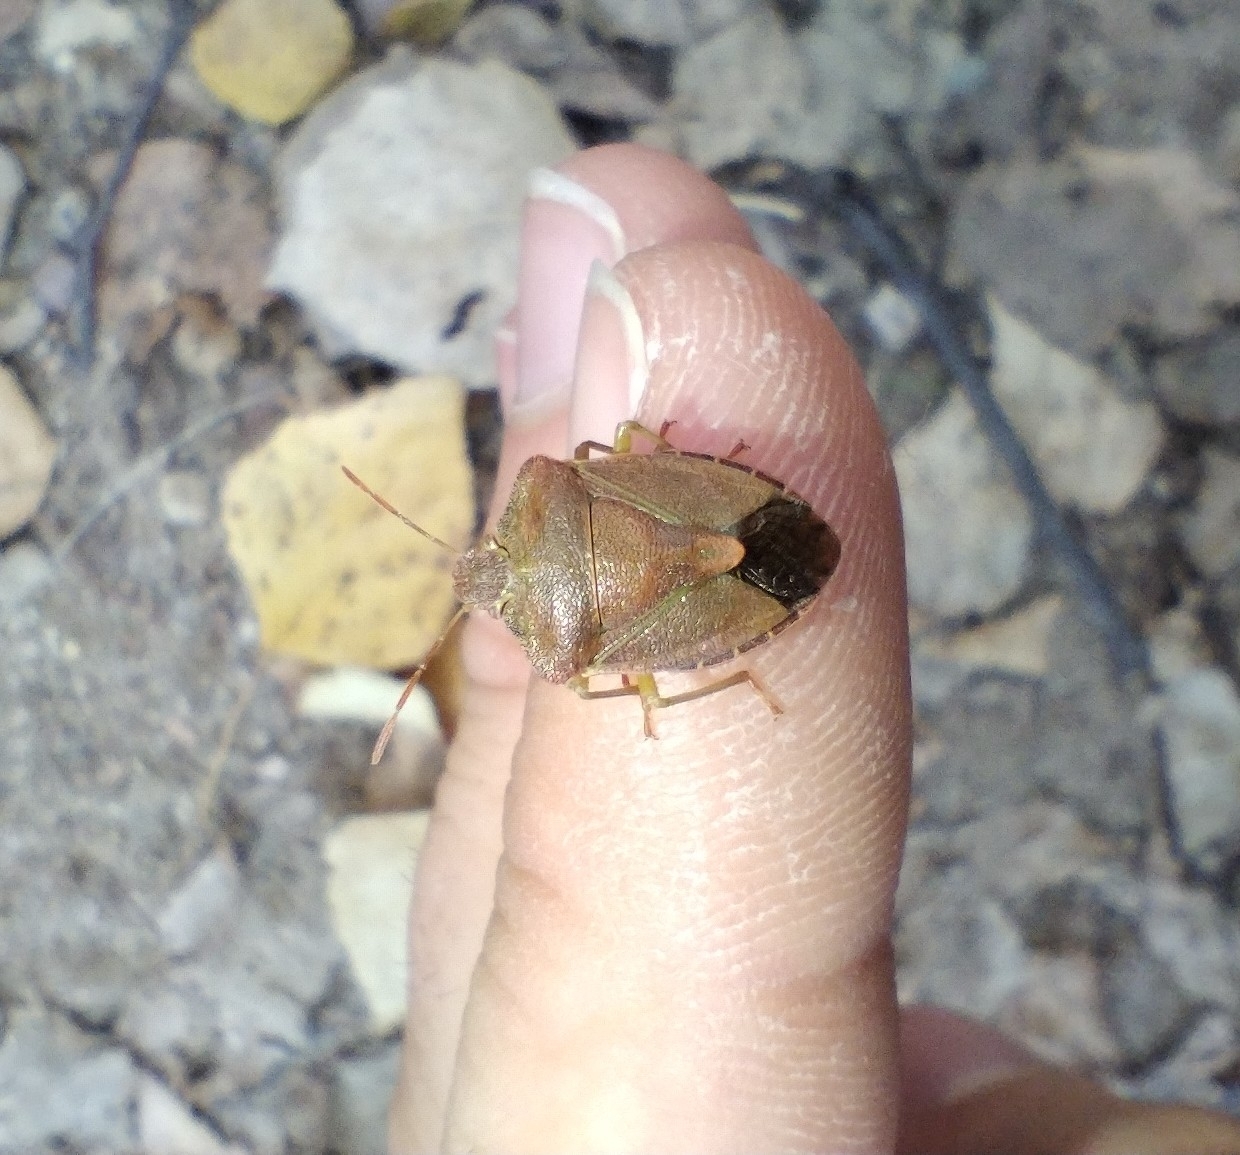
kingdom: Animalia
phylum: Arthropoda
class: Insecta
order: Hemiptera
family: Pentatomidae
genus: Palomena
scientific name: Palomena prasina
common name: Green shieldbug
